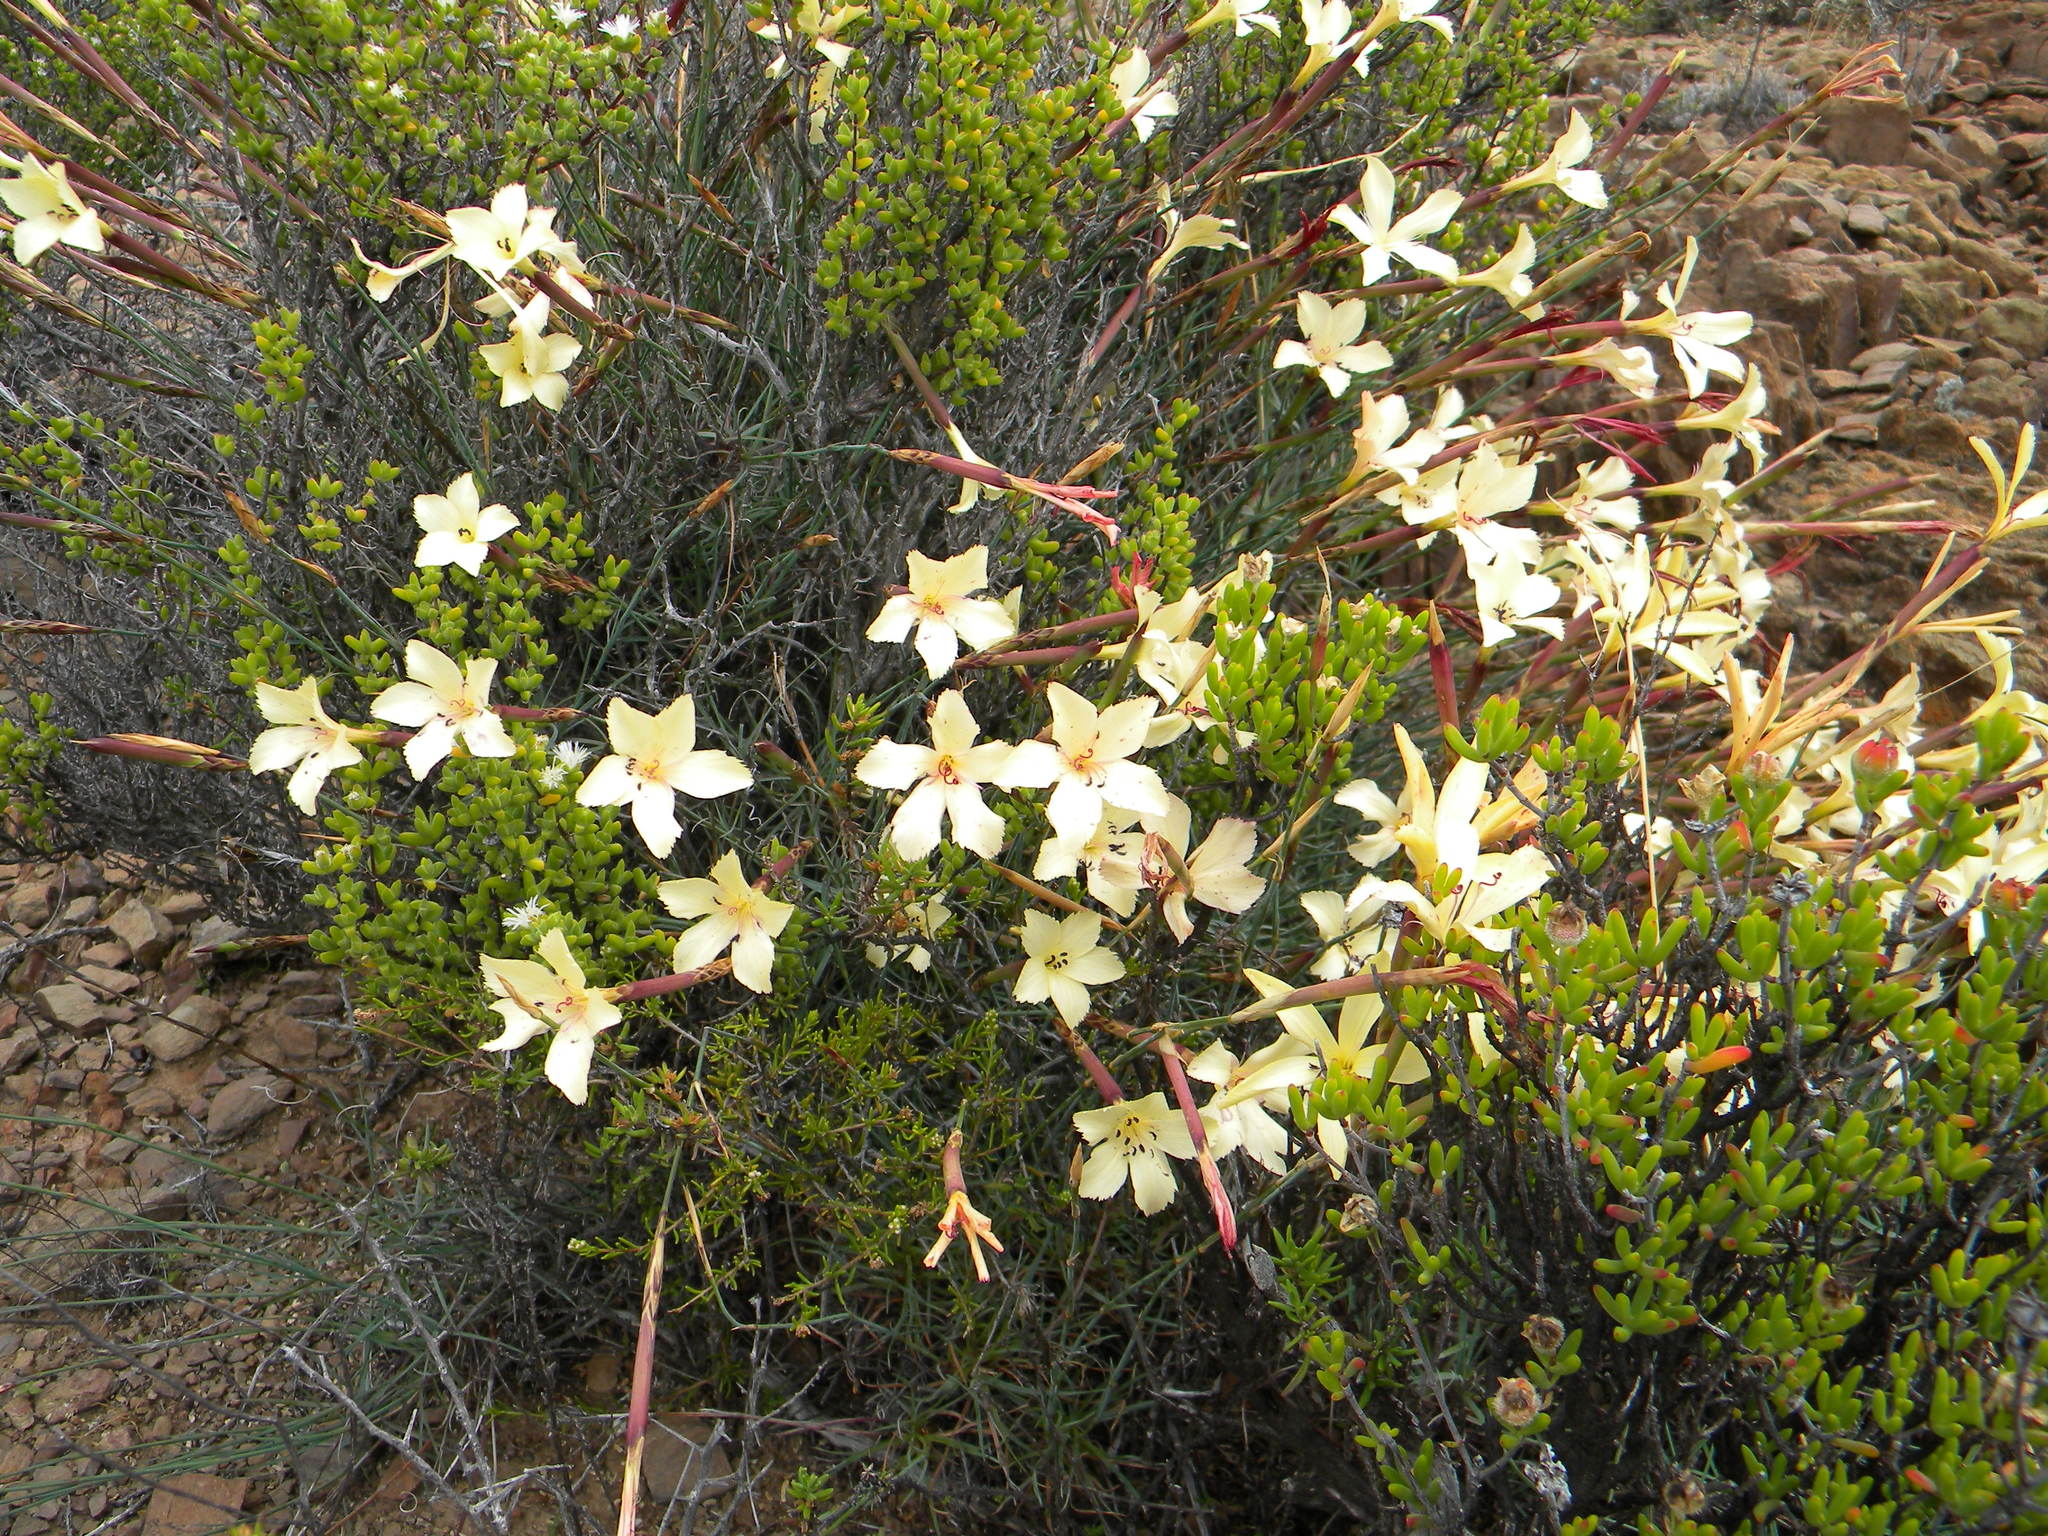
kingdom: Plantae
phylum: Tracheophyta
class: Magnoliopsida
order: Caryophyllales
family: Caryophyllaceae
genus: Dianthus
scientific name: Dianthus caespitosus
